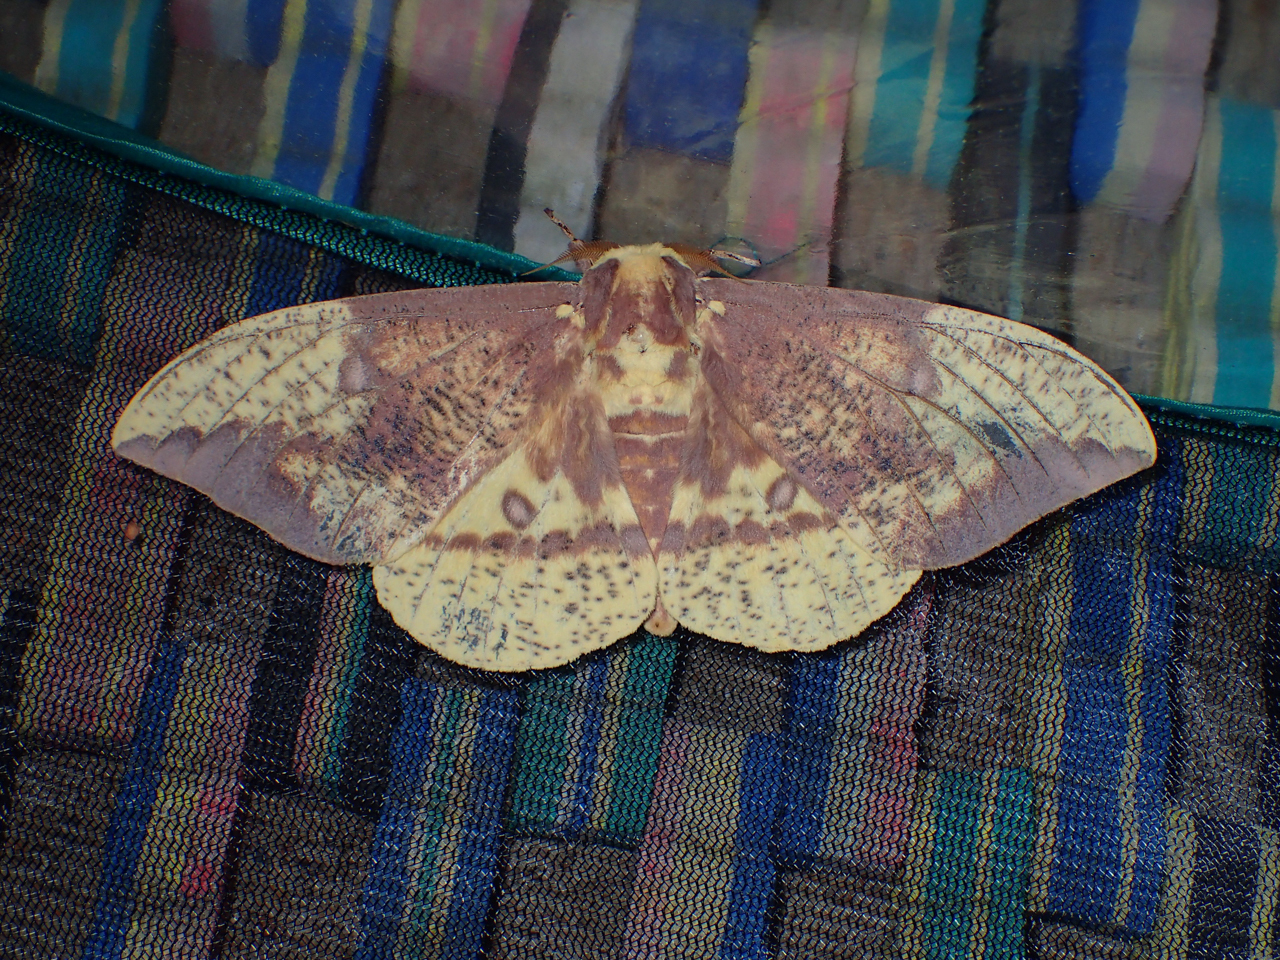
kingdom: Animalia
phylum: Arthropoda
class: Insecta
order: Lepidoptera
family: Saturniidae
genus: Eacles
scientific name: Eacles imperialis
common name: Imperial moth
